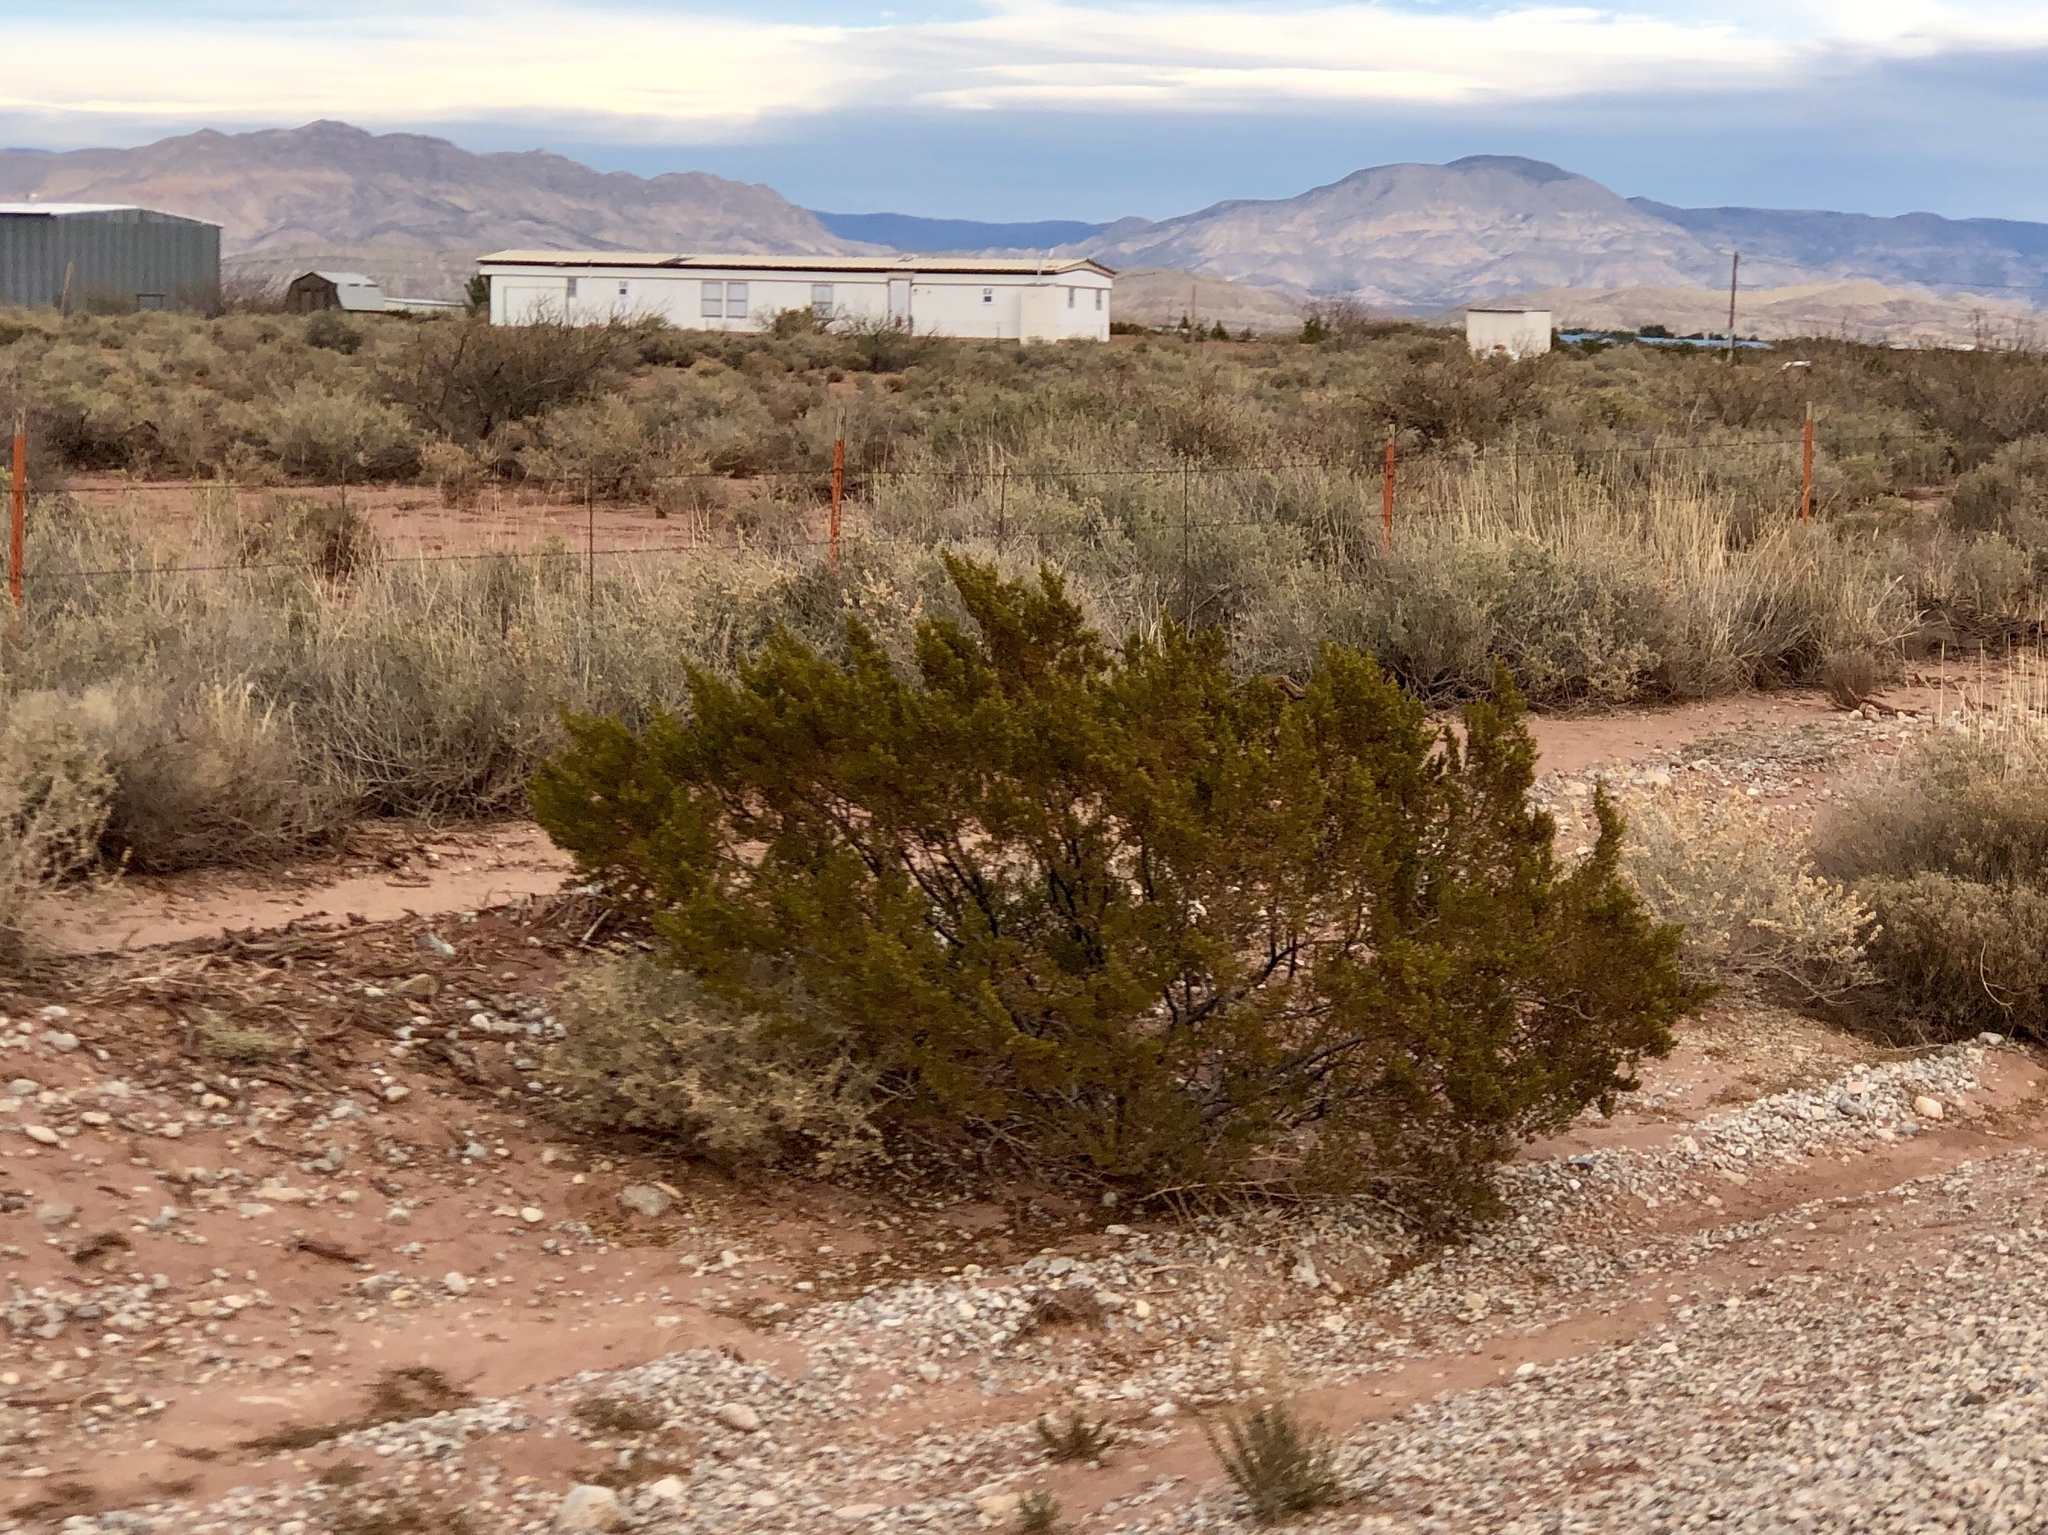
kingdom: Plantae
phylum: Tracheophyta
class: Magnoliopsida
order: Zygophyllales
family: Zygophyllaceae
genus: Larrea
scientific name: Larrea tridentata
